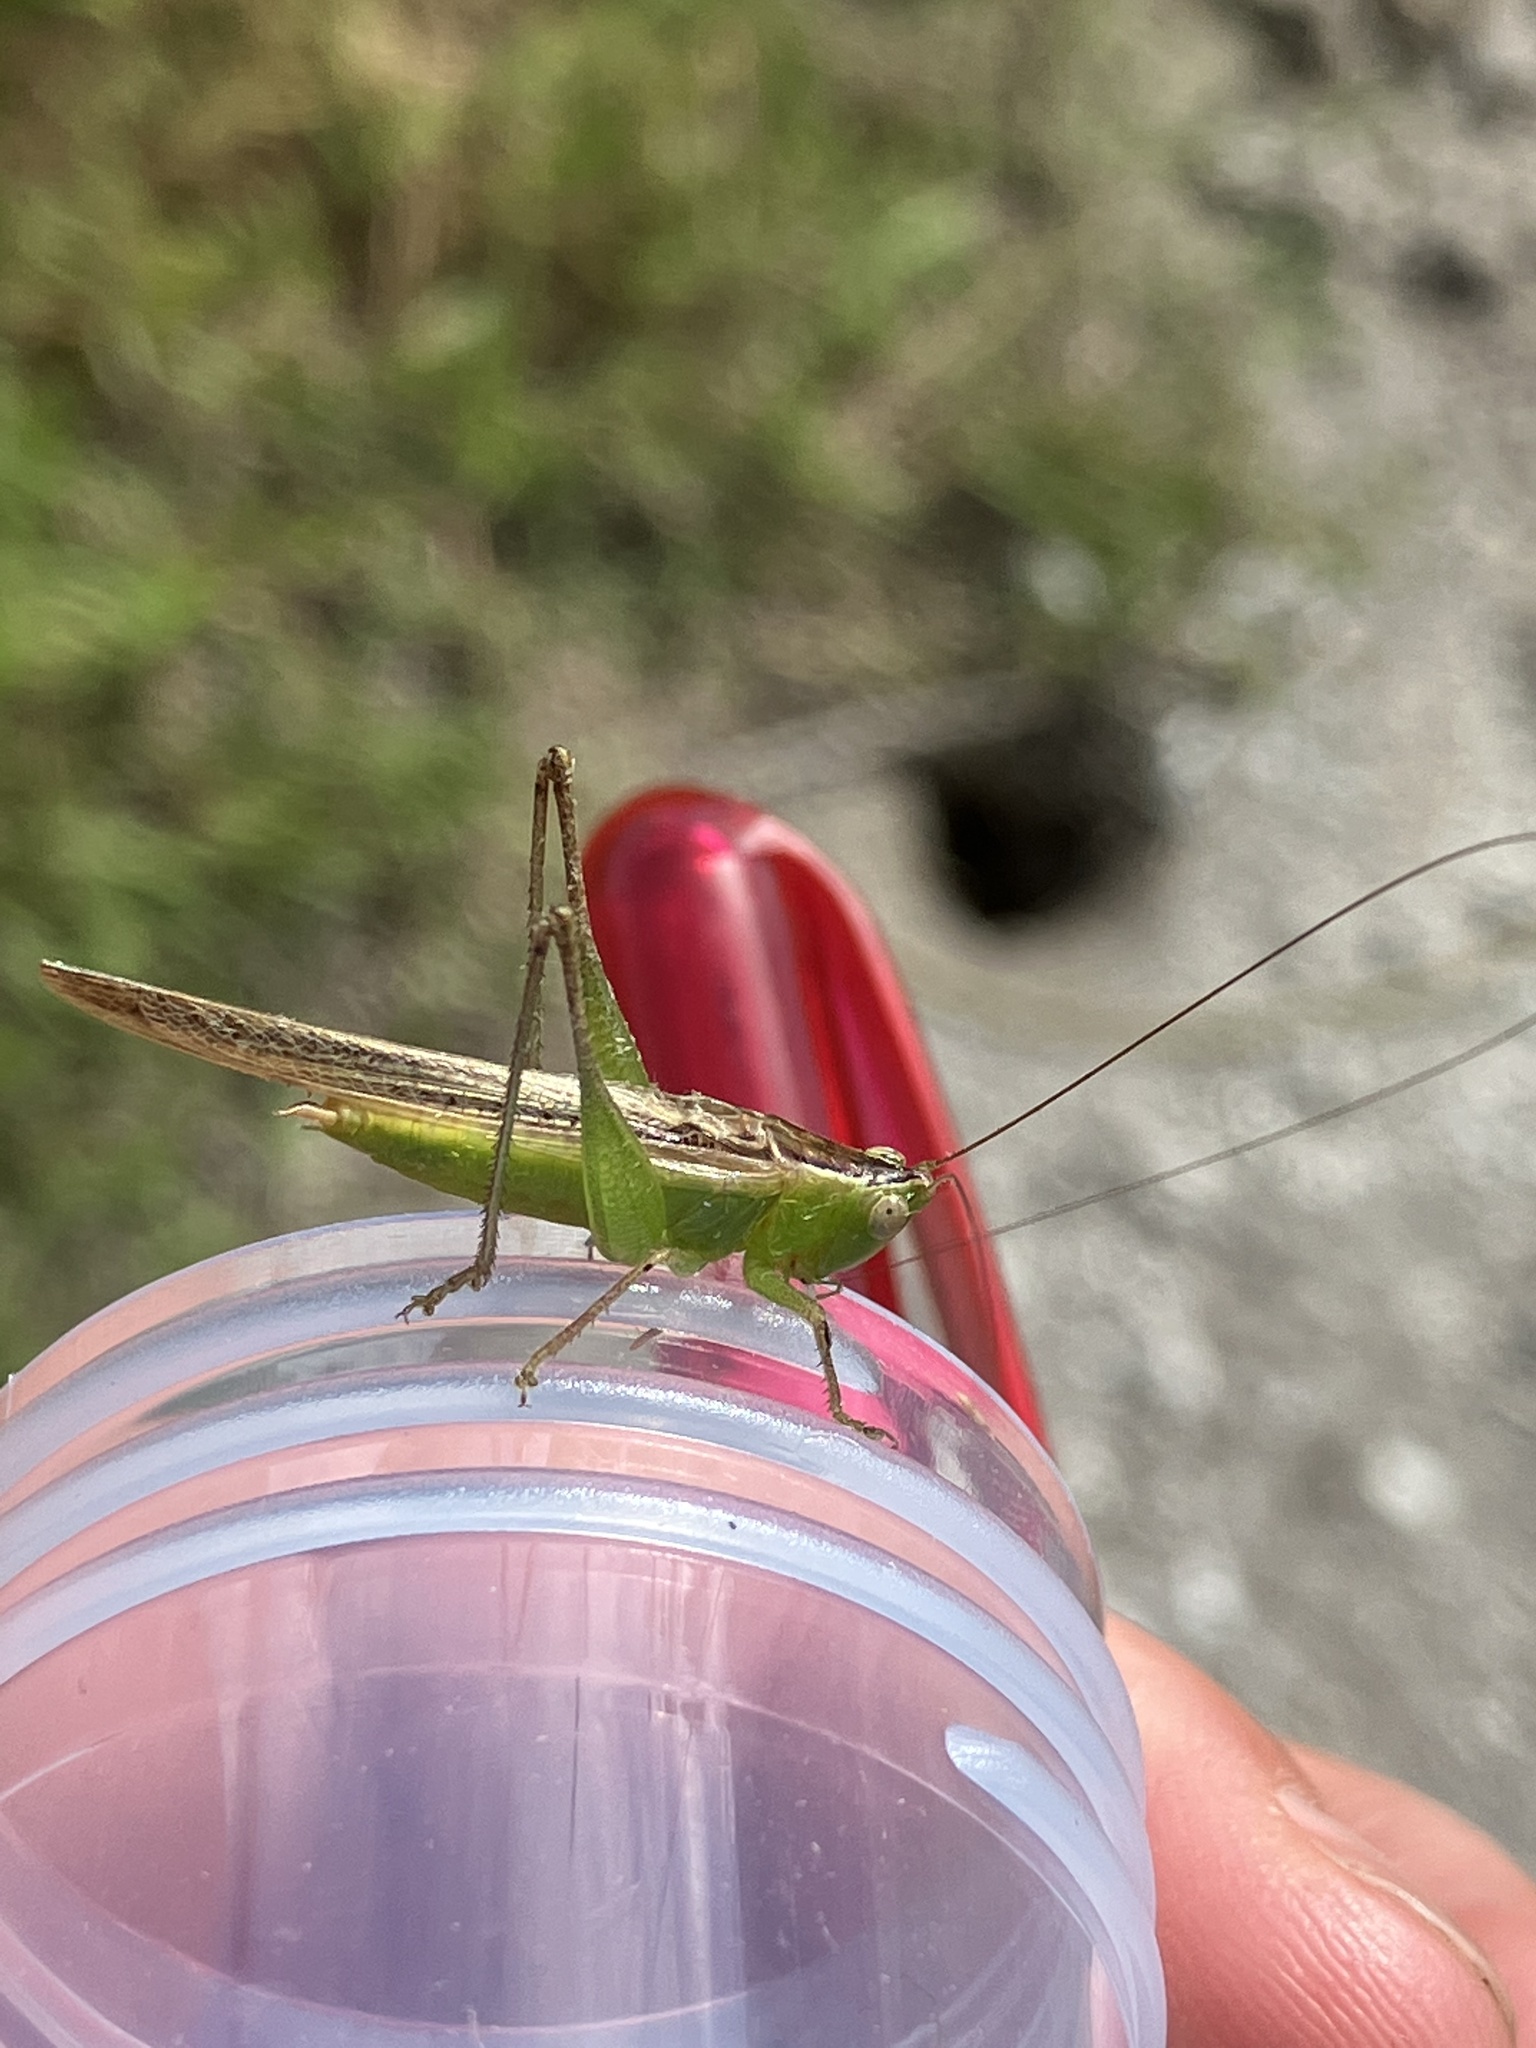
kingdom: Animalia
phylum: Arthropoda
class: Insecta
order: Orthoptera
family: Tettigoniidae
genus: Conocephalus
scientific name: Conocephalus maculatus
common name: Spotted meadow katydid
